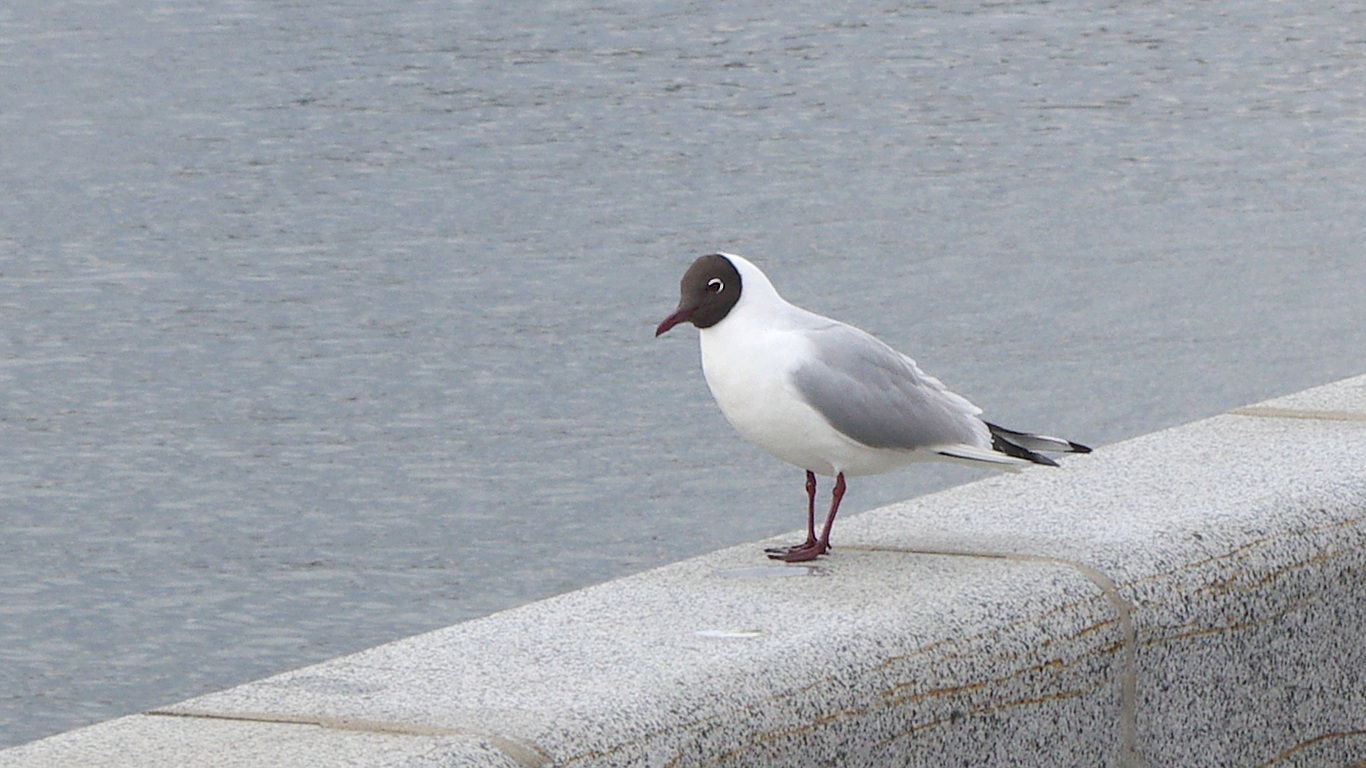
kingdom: Animalia
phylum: Chordata
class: Aves
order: Charadriiformes
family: Laridae
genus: Chroicocephalus
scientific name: Chroicocephalus ridibundus
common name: Black-headed gull
